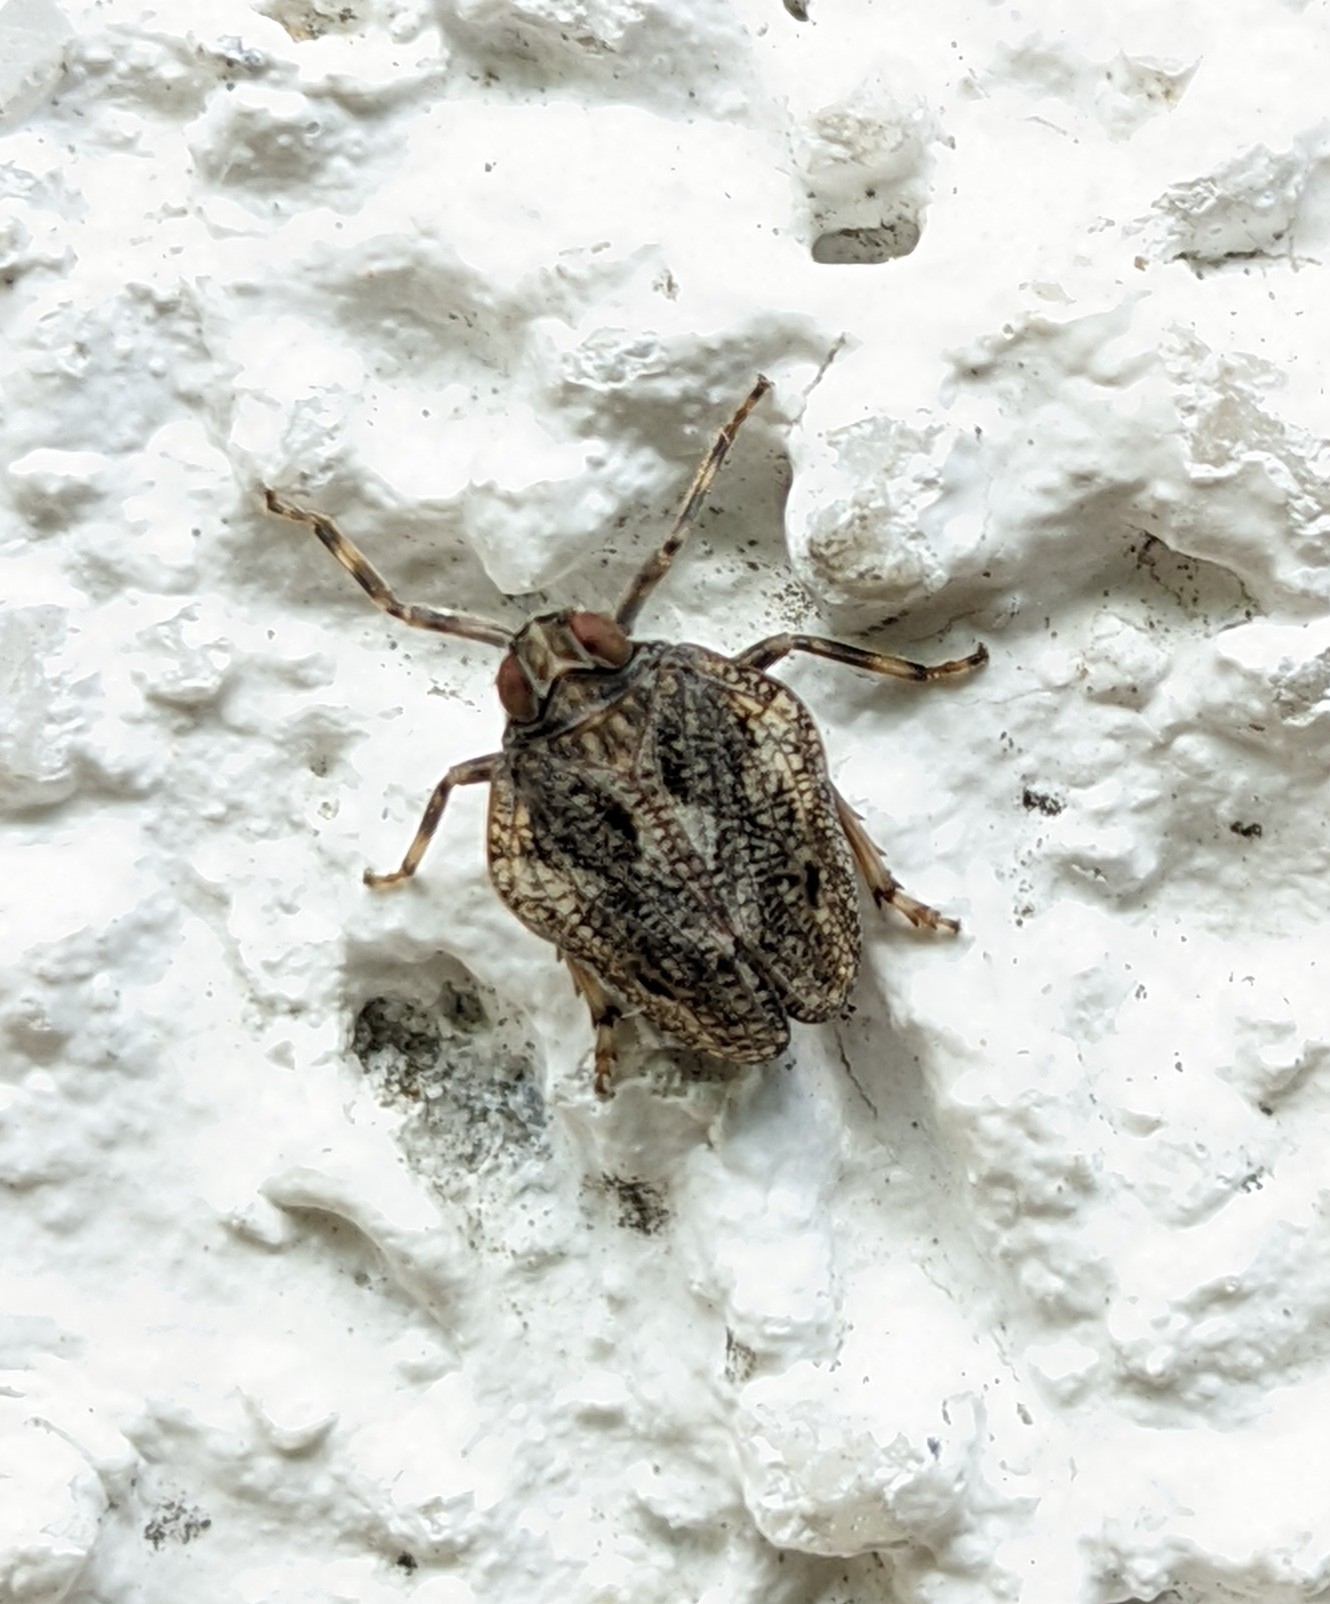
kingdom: Animalia
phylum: Arthropoda
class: Insecta
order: Hemiptera
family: Issidae
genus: Issus
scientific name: Issus coleoptratus
